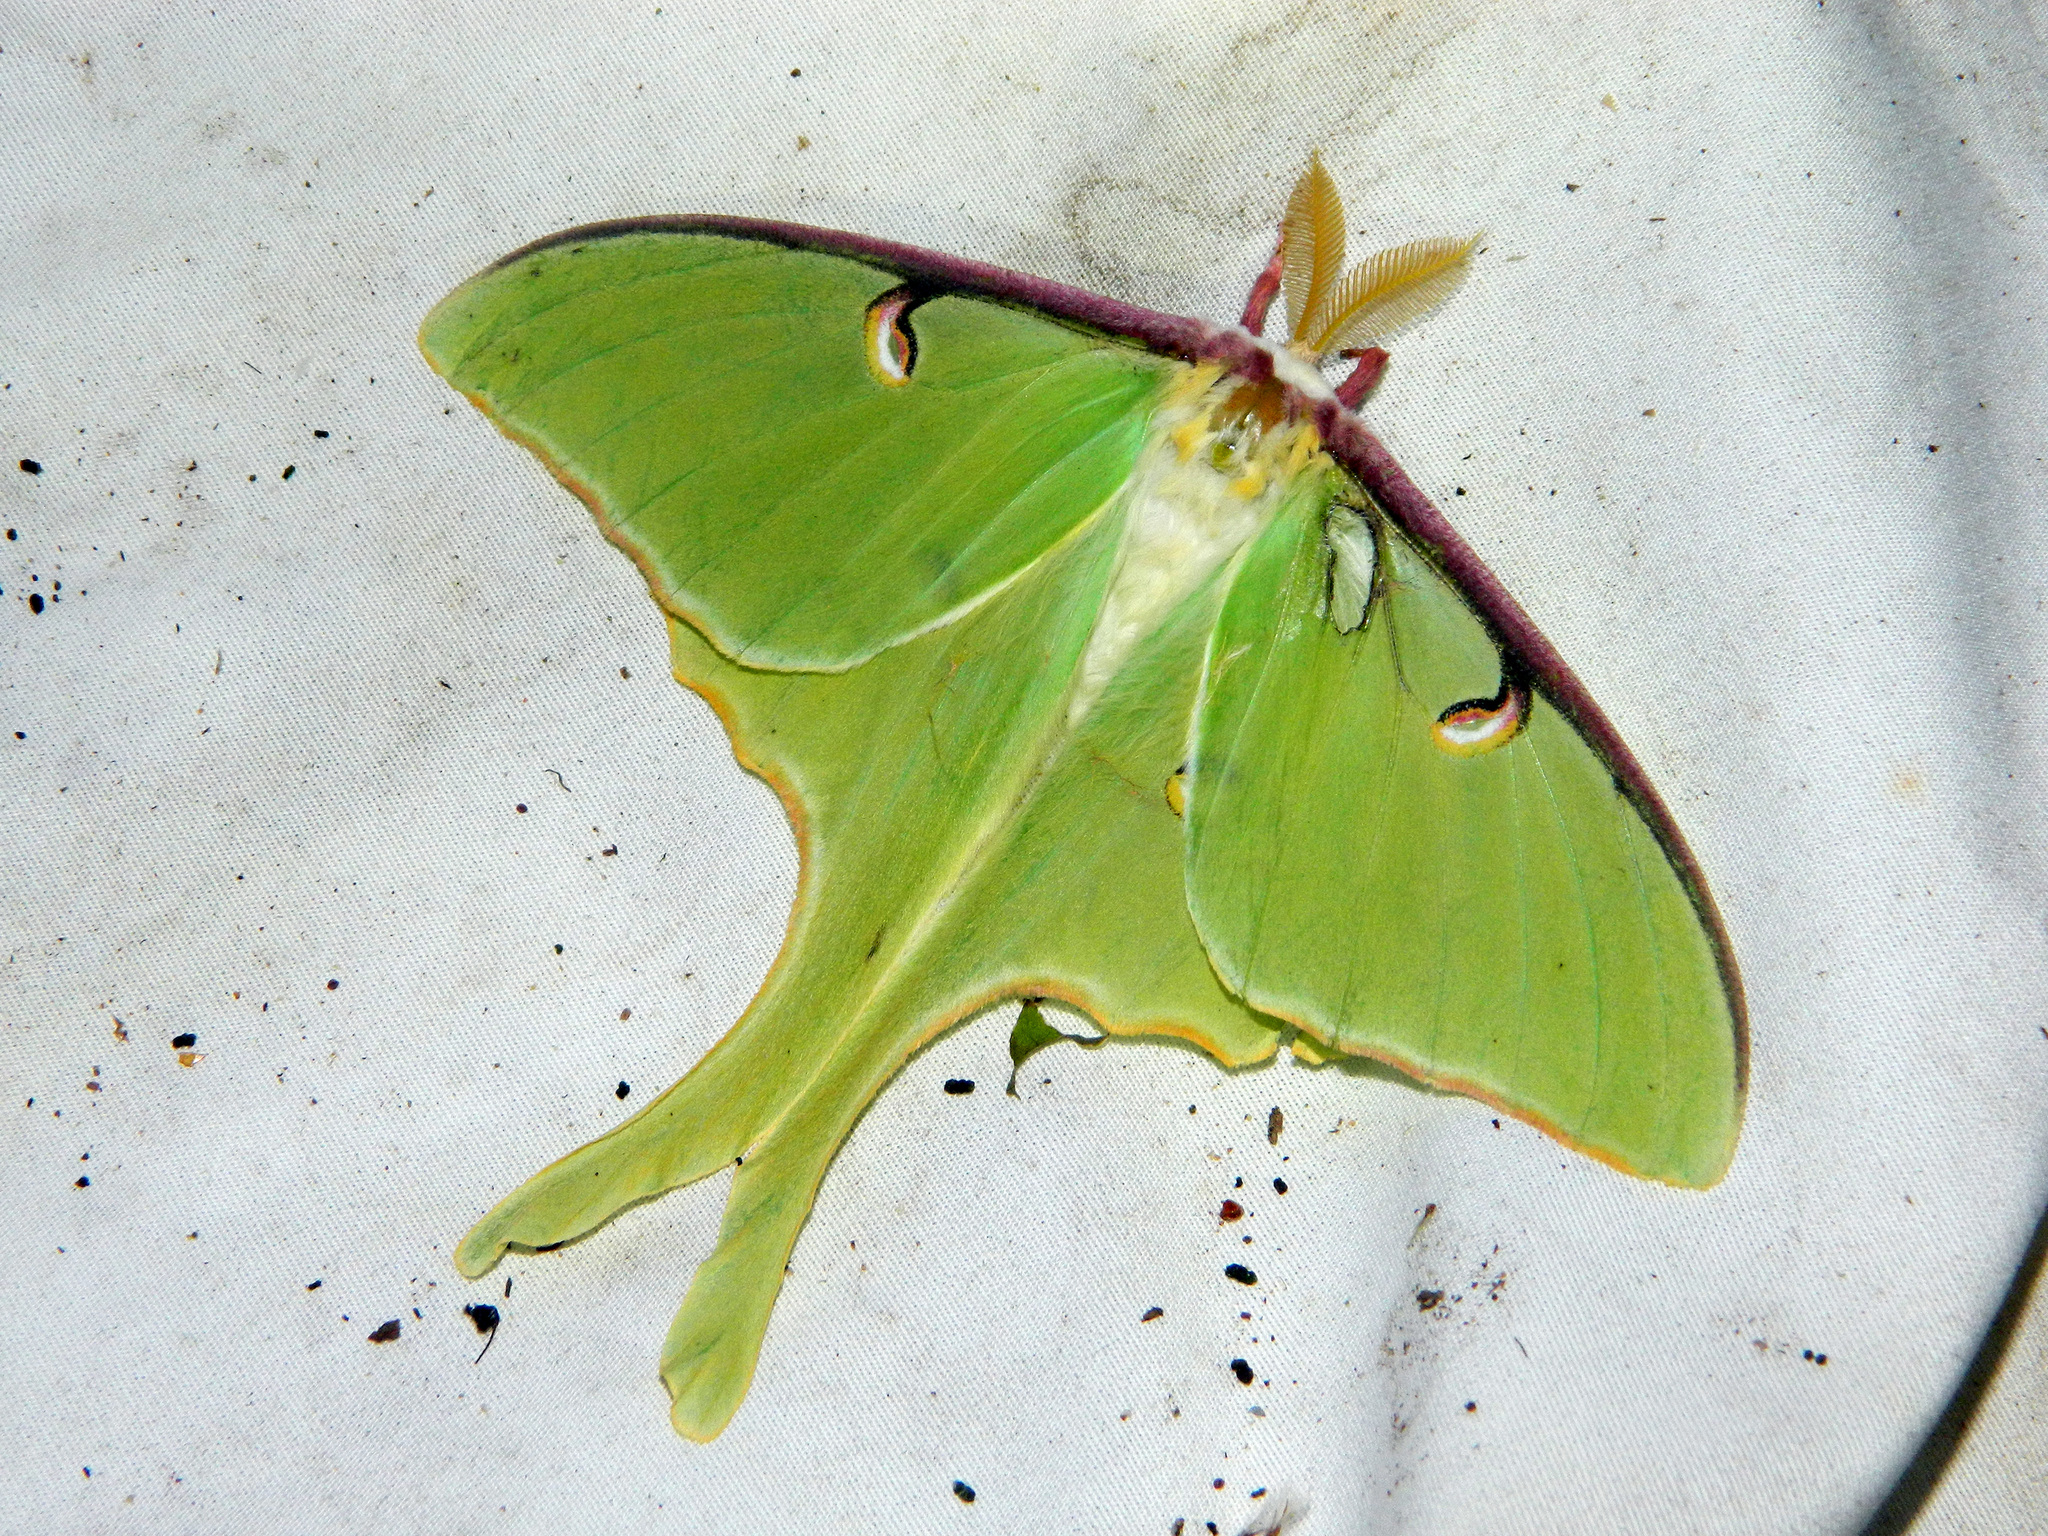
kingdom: Animalia
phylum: Arthropoda
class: Insecta
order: Lepidoptera
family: Saturniidae
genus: Actias
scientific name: Actias luna
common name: Luna moth
